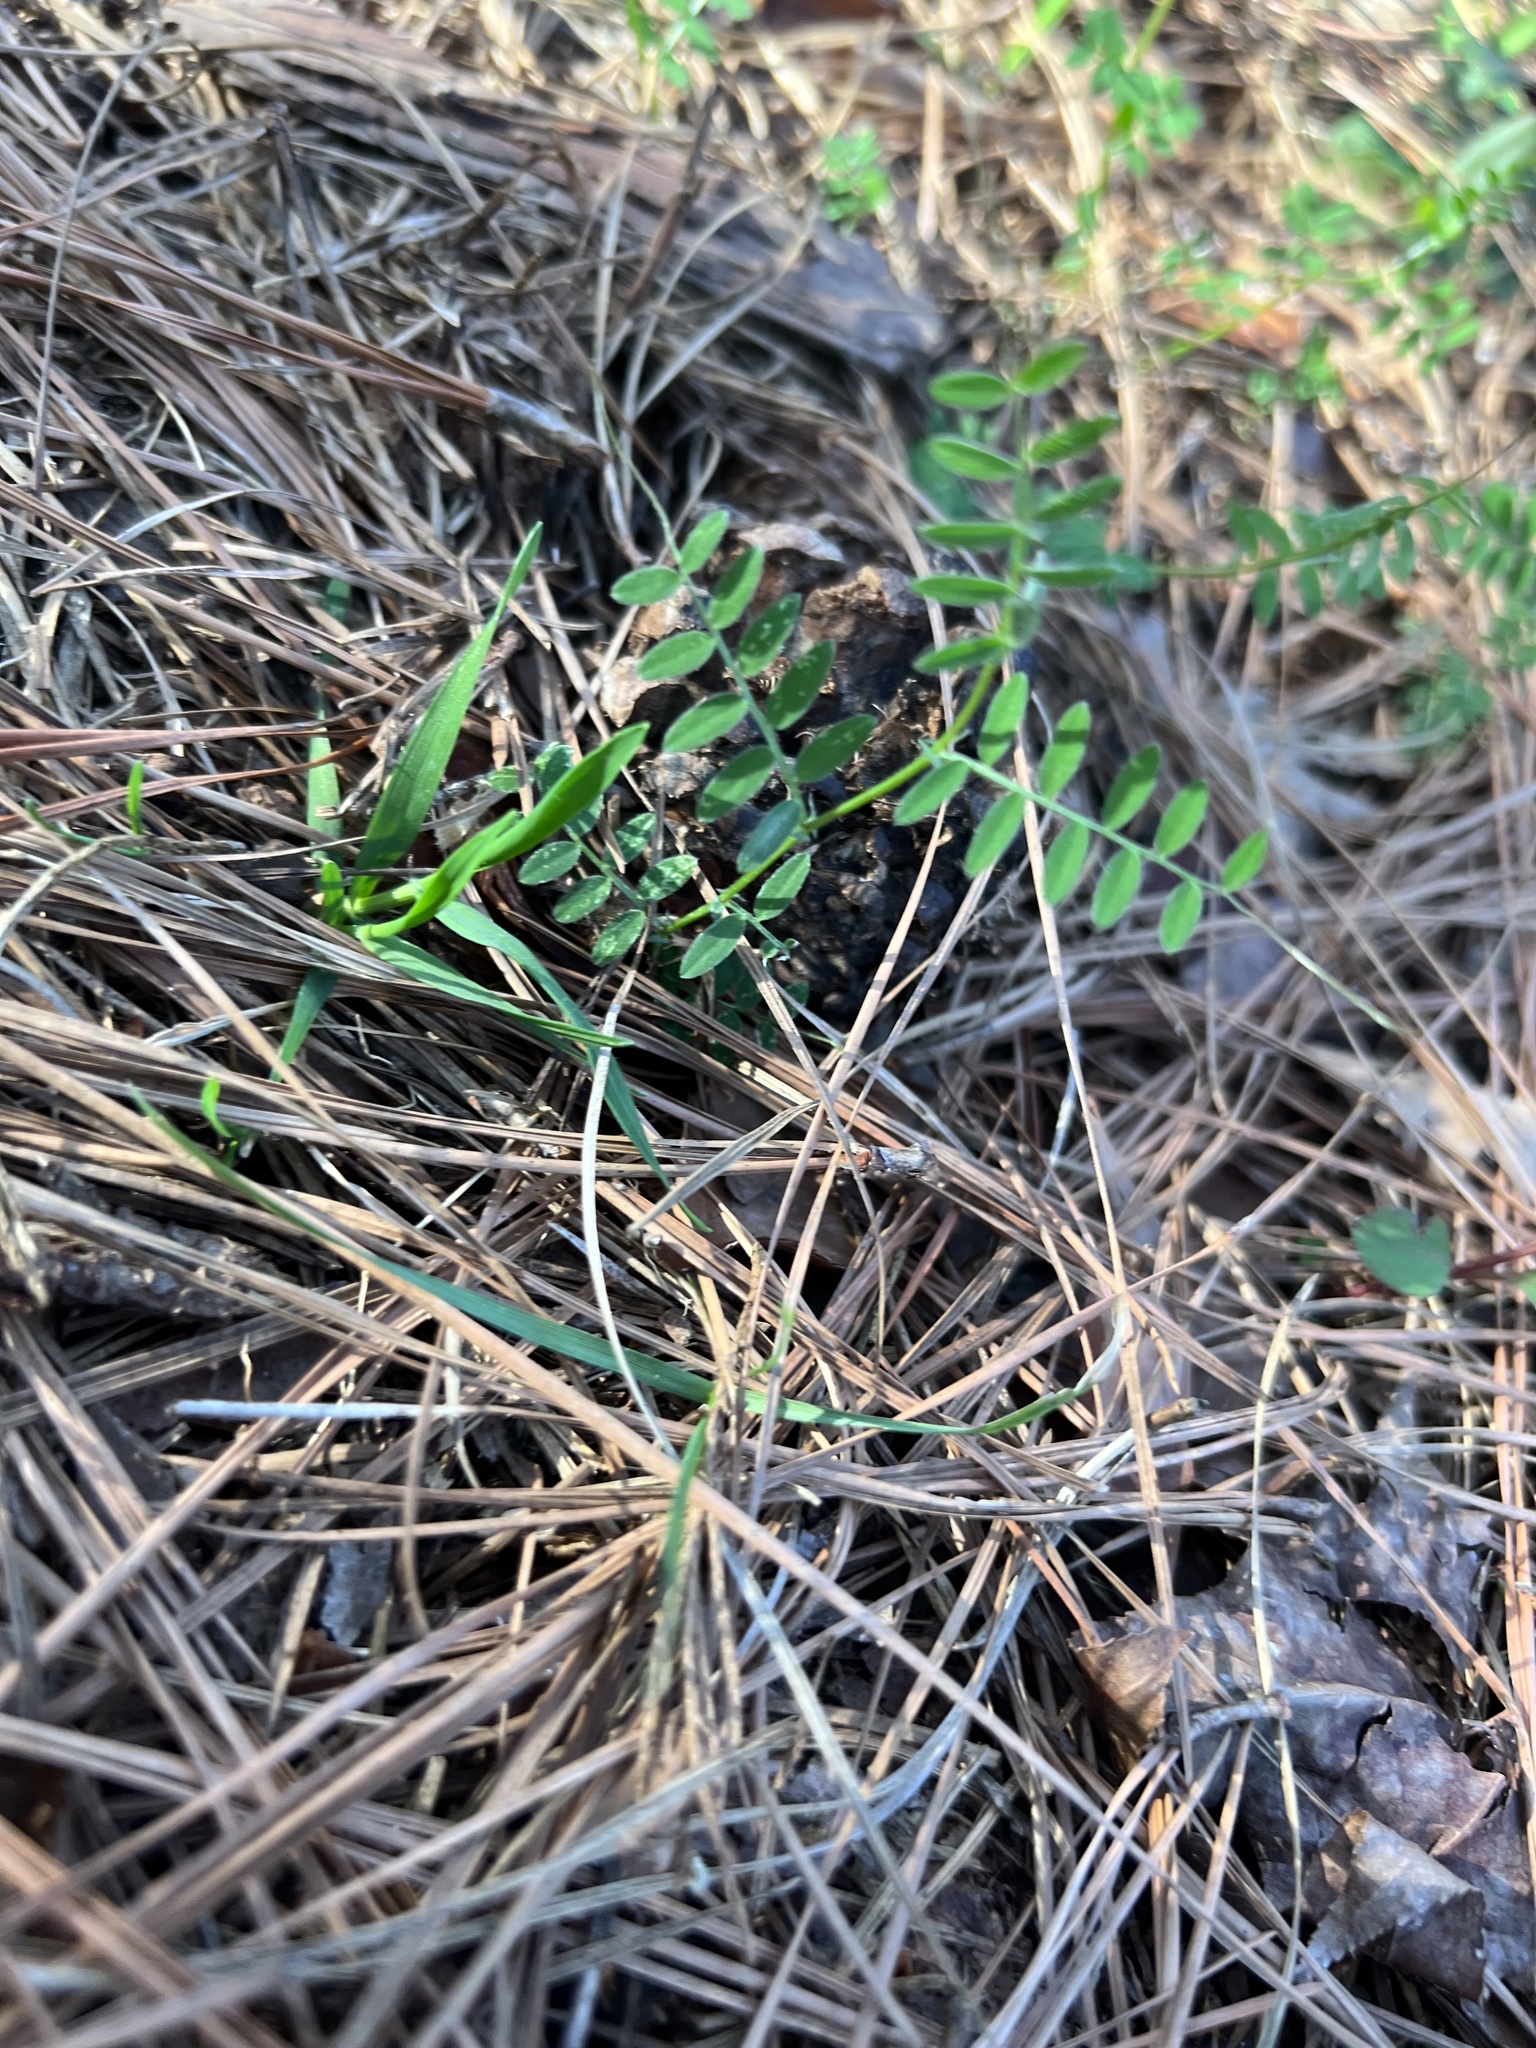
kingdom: Plantae
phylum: Tracheophyta
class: Magnoliopsida
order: Fabales
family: Fabaceae
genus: Vicia
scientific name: Vicia sativa
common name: Garden vetch
